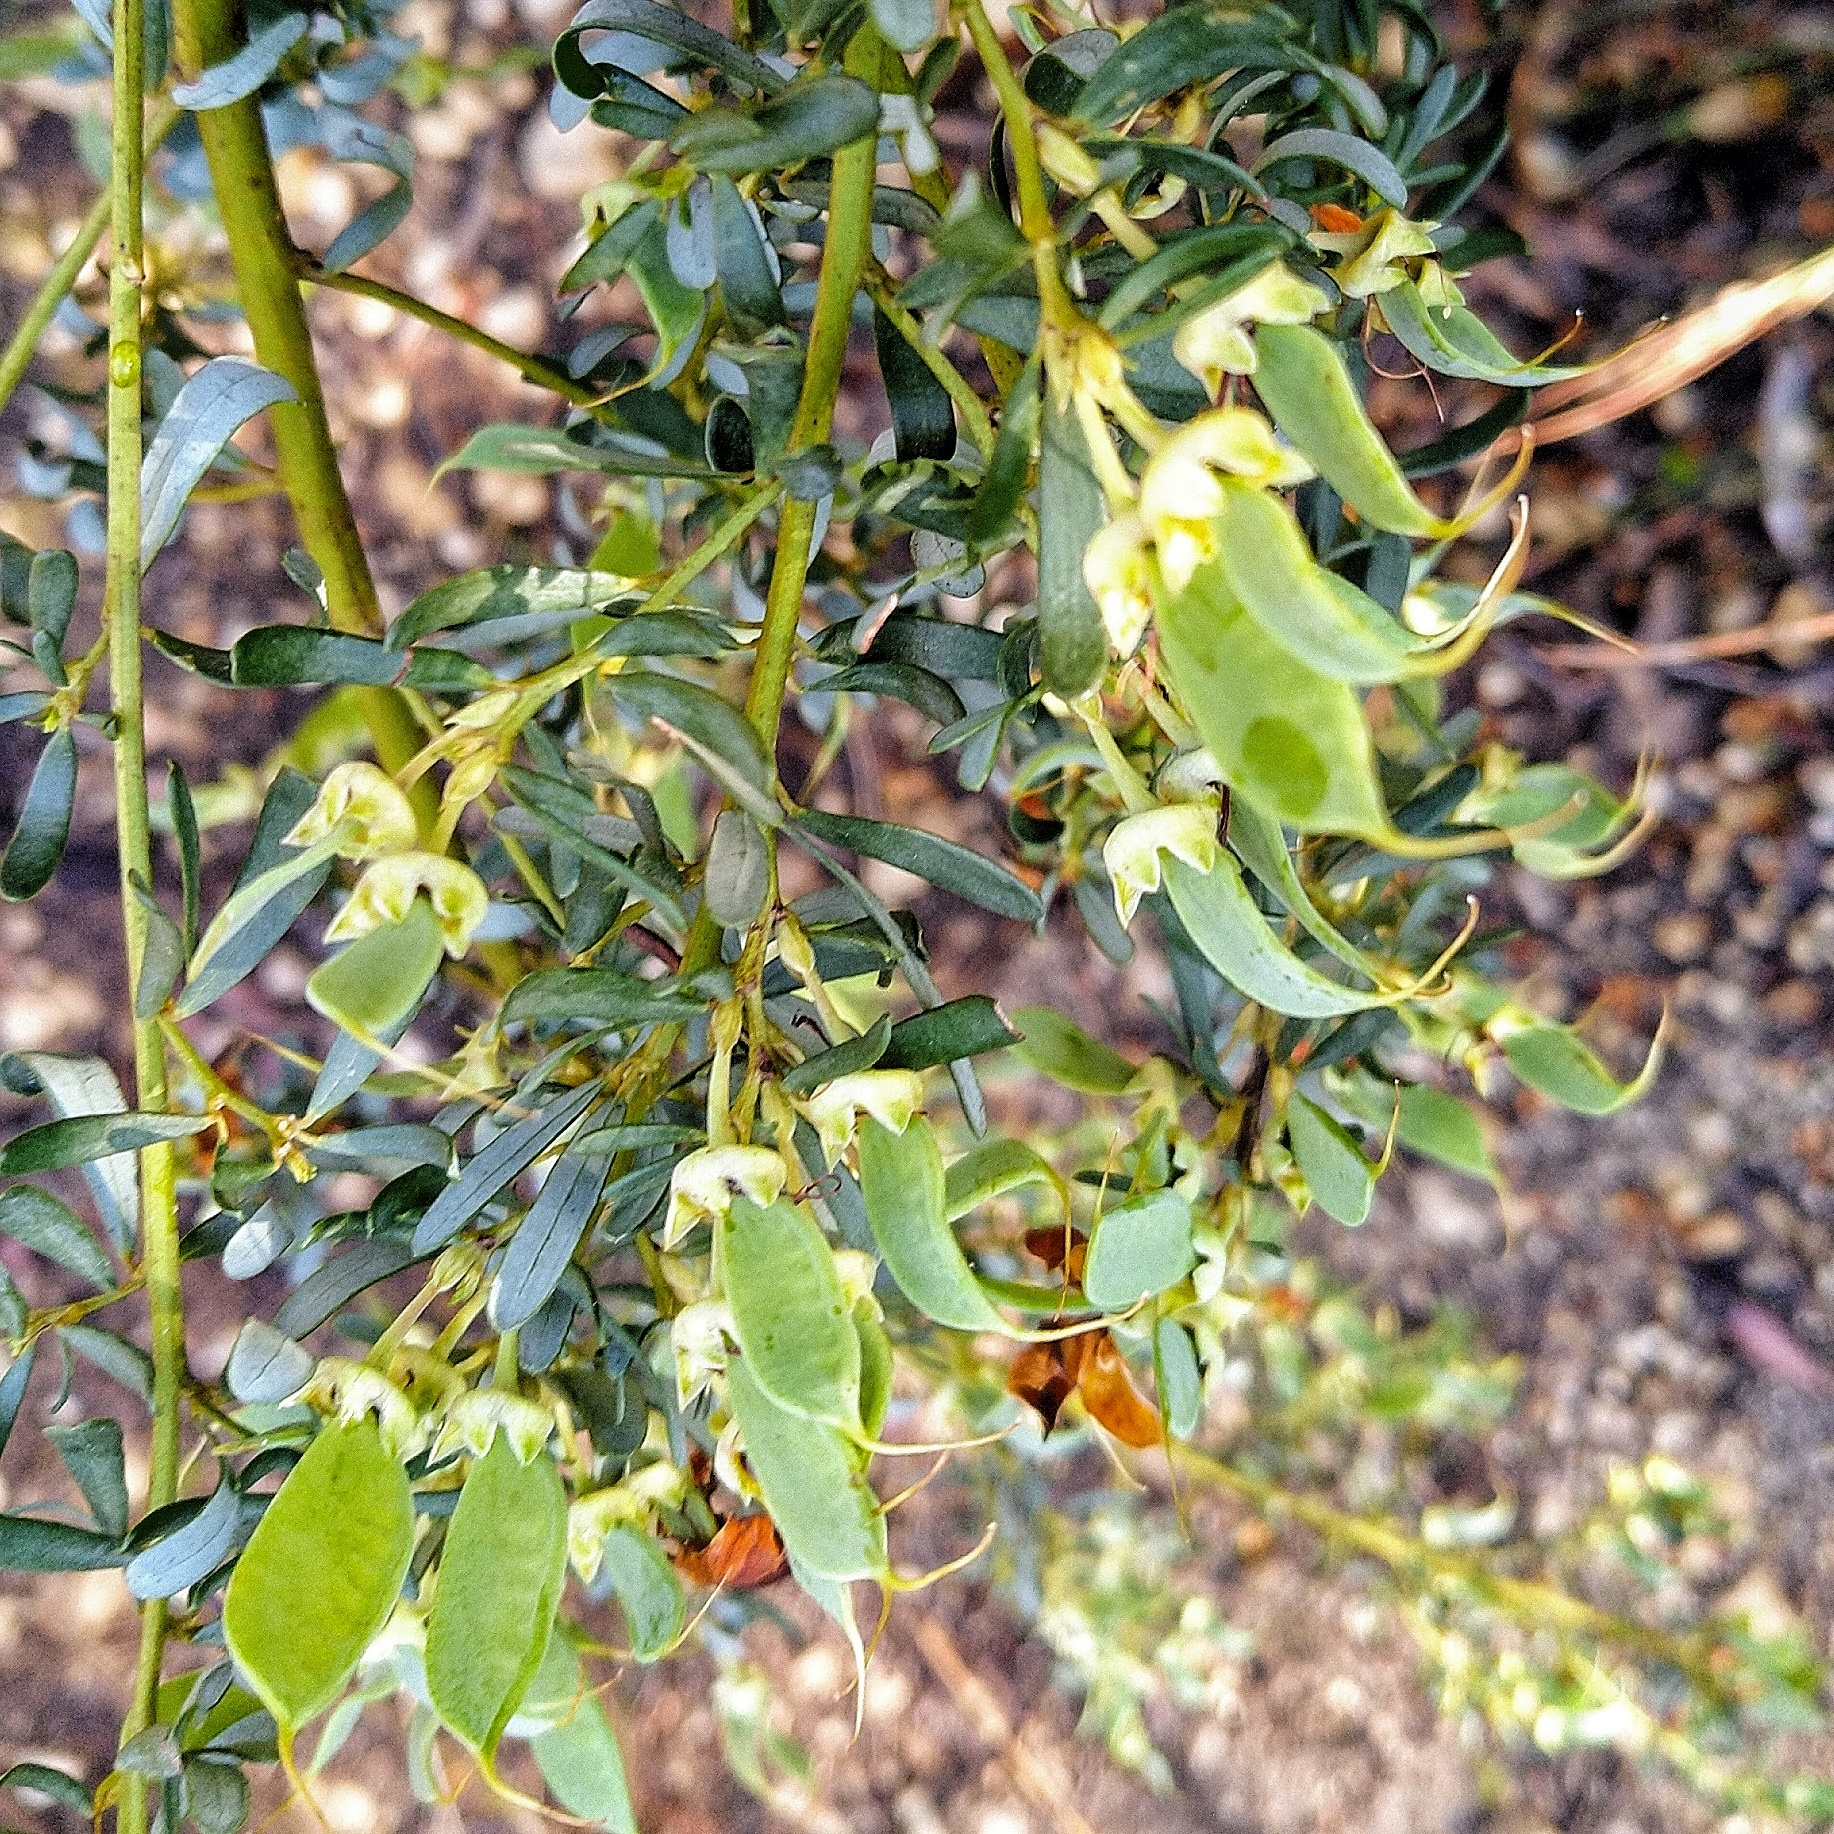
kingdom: Plantae
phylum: Tracheophyta
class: Magnoliopsida
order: Fabales
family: Fabaceae
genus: Cyclopia
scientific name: Cyclopia subternata
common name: Honeybush tea
